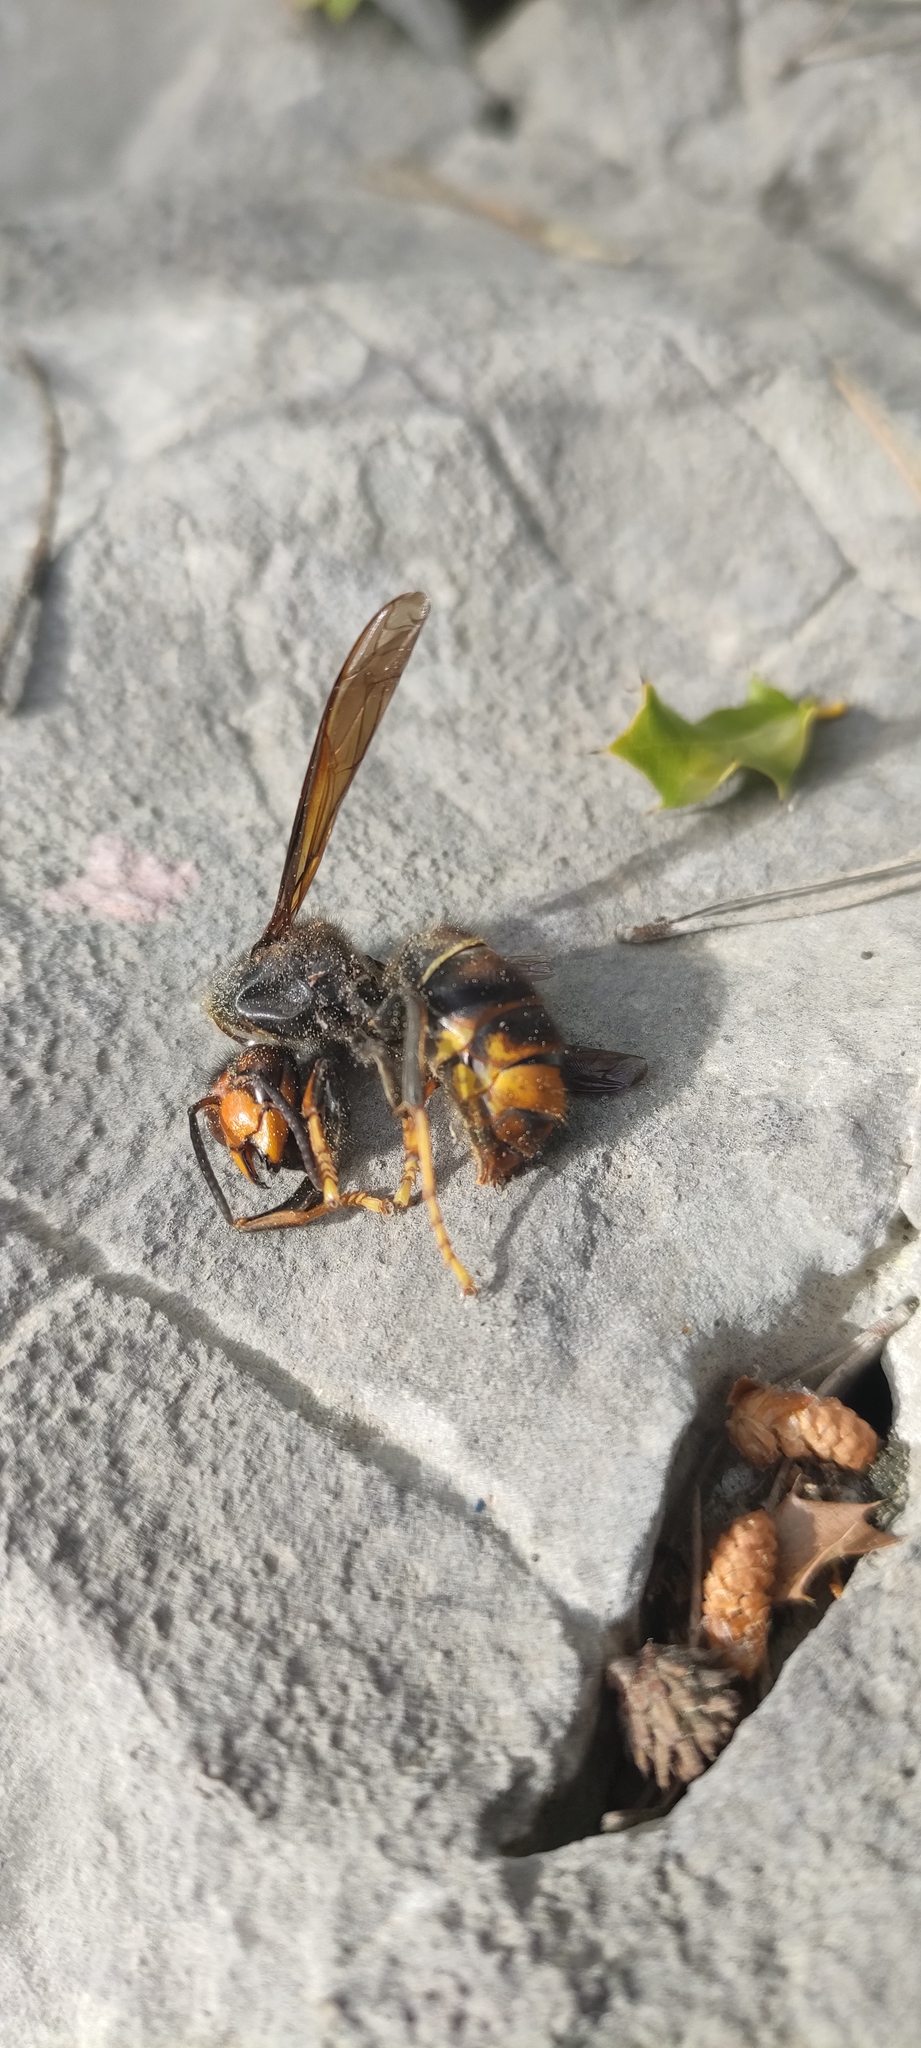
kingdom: Animalia
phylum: Arthropoda
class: Insecta
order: Hymenoptera
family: Vespidae
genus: Vespa
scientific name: Vespa velutina
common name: Asian hornet
